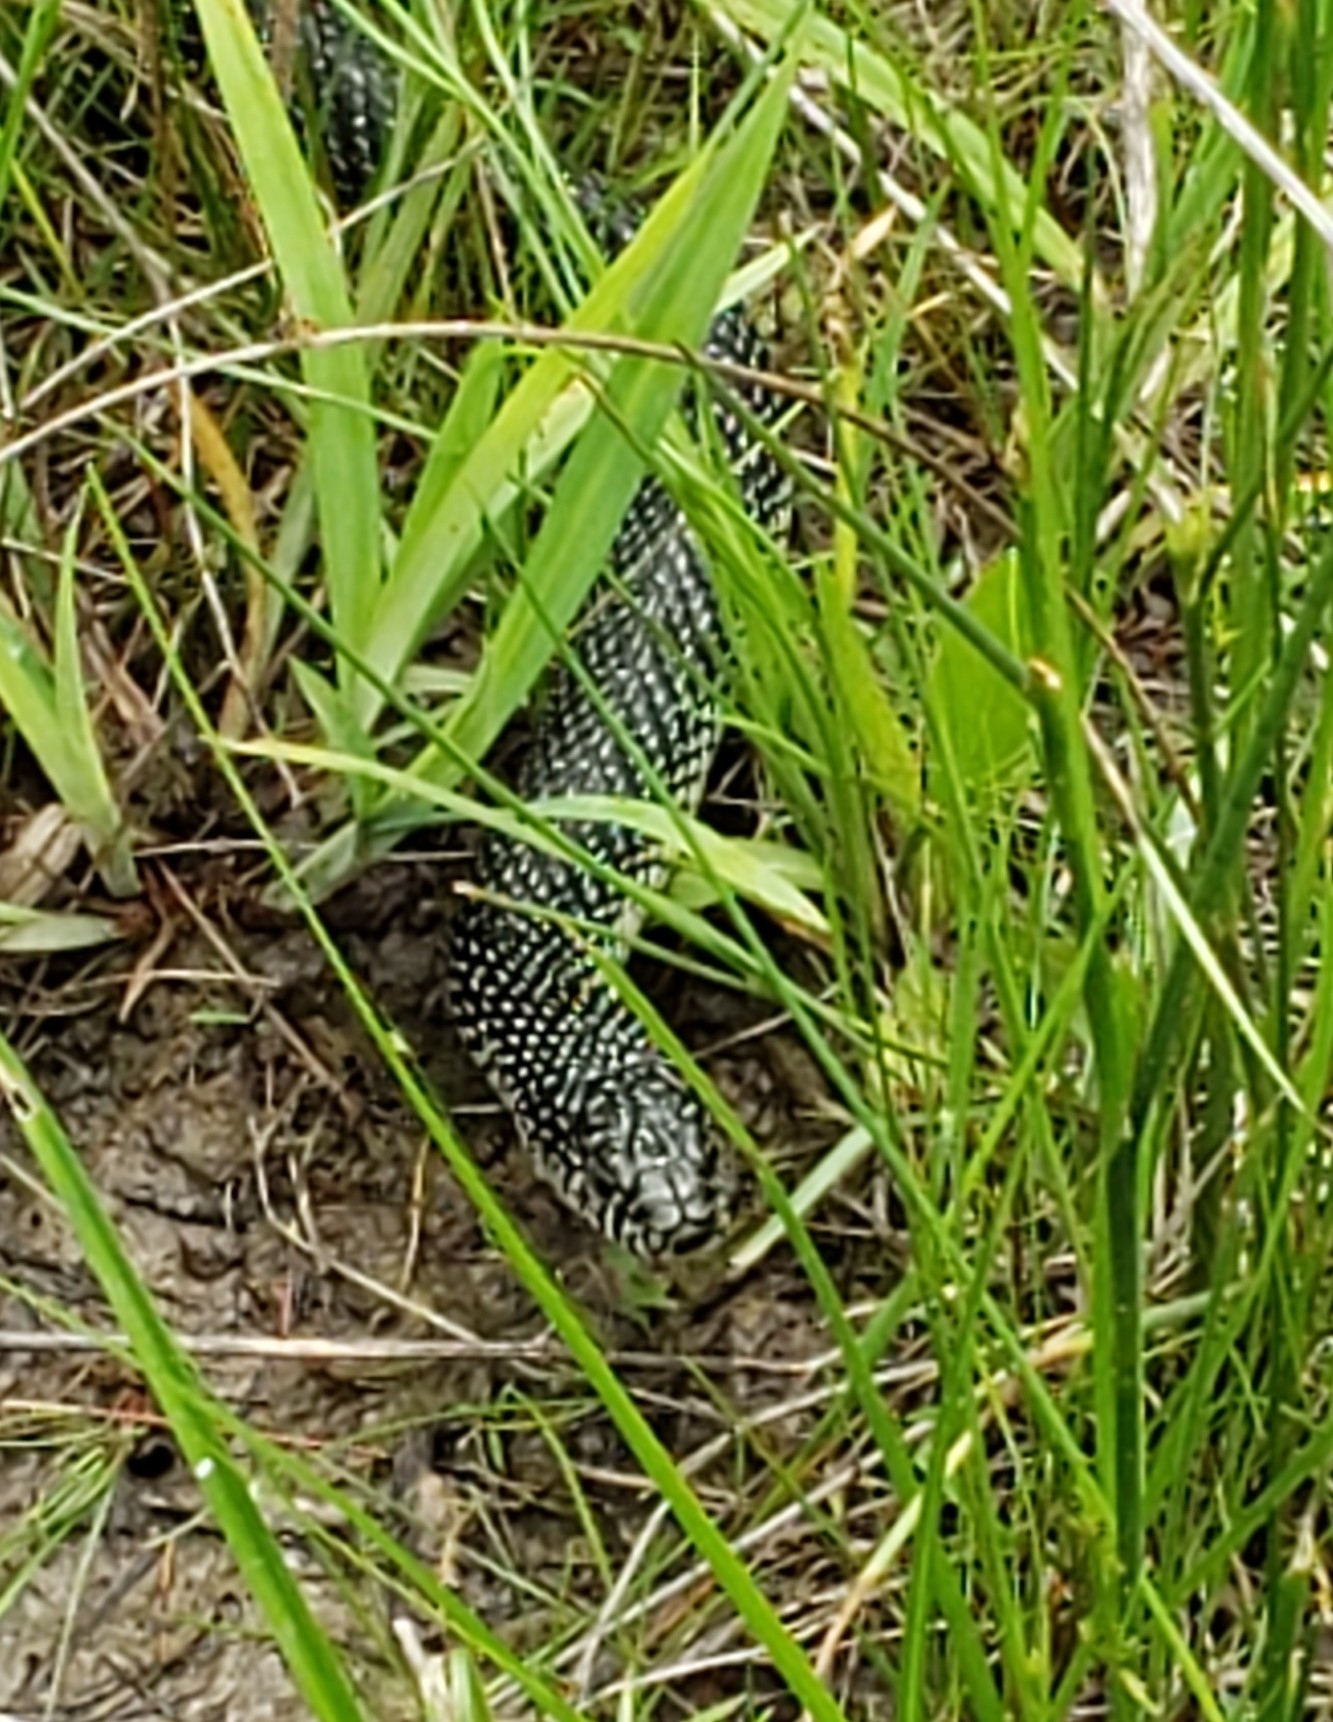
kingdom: Animalia
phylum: Chordata
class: Squamata
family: Colubridae
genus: Lampropeltis
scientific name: Lampropeltis holbrooki
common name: Speckled kingsnake
